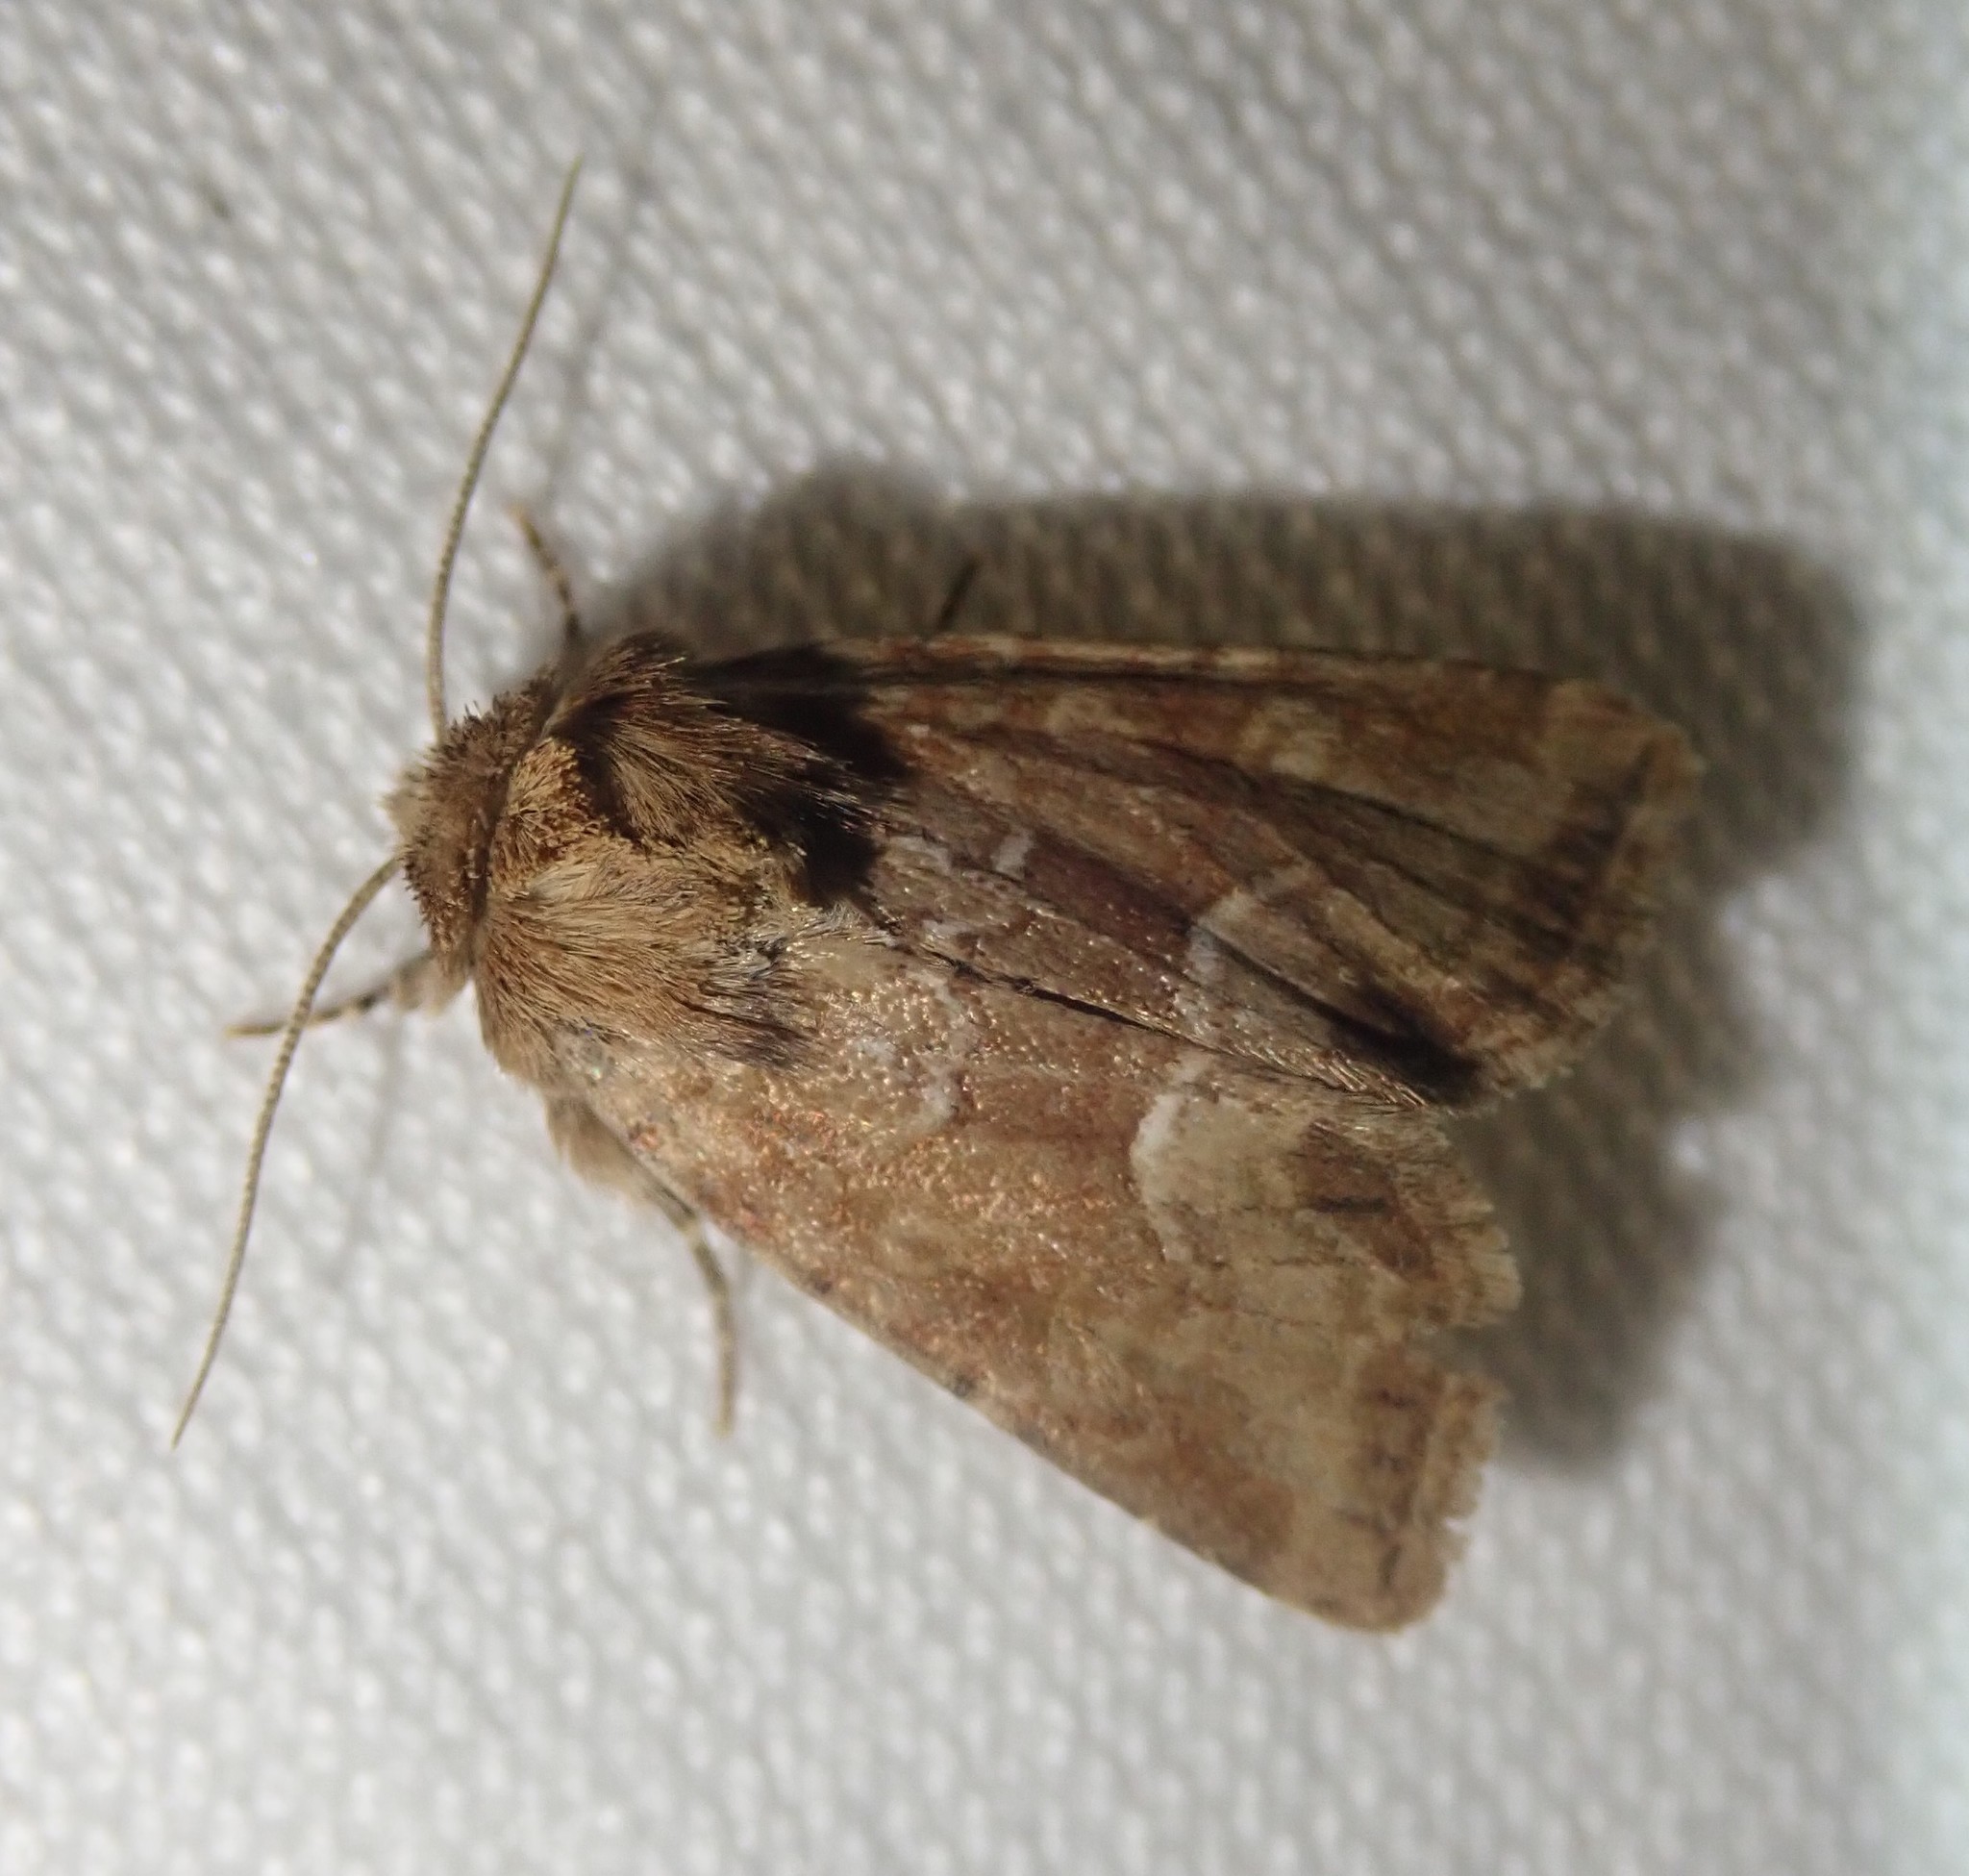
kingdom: Animalia
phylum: Arthropoda
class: Insecta
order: Lepidoptera
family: Noctuidae
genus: Oligia
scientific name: Oligia fasciuncula
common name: Middle-barred minor
